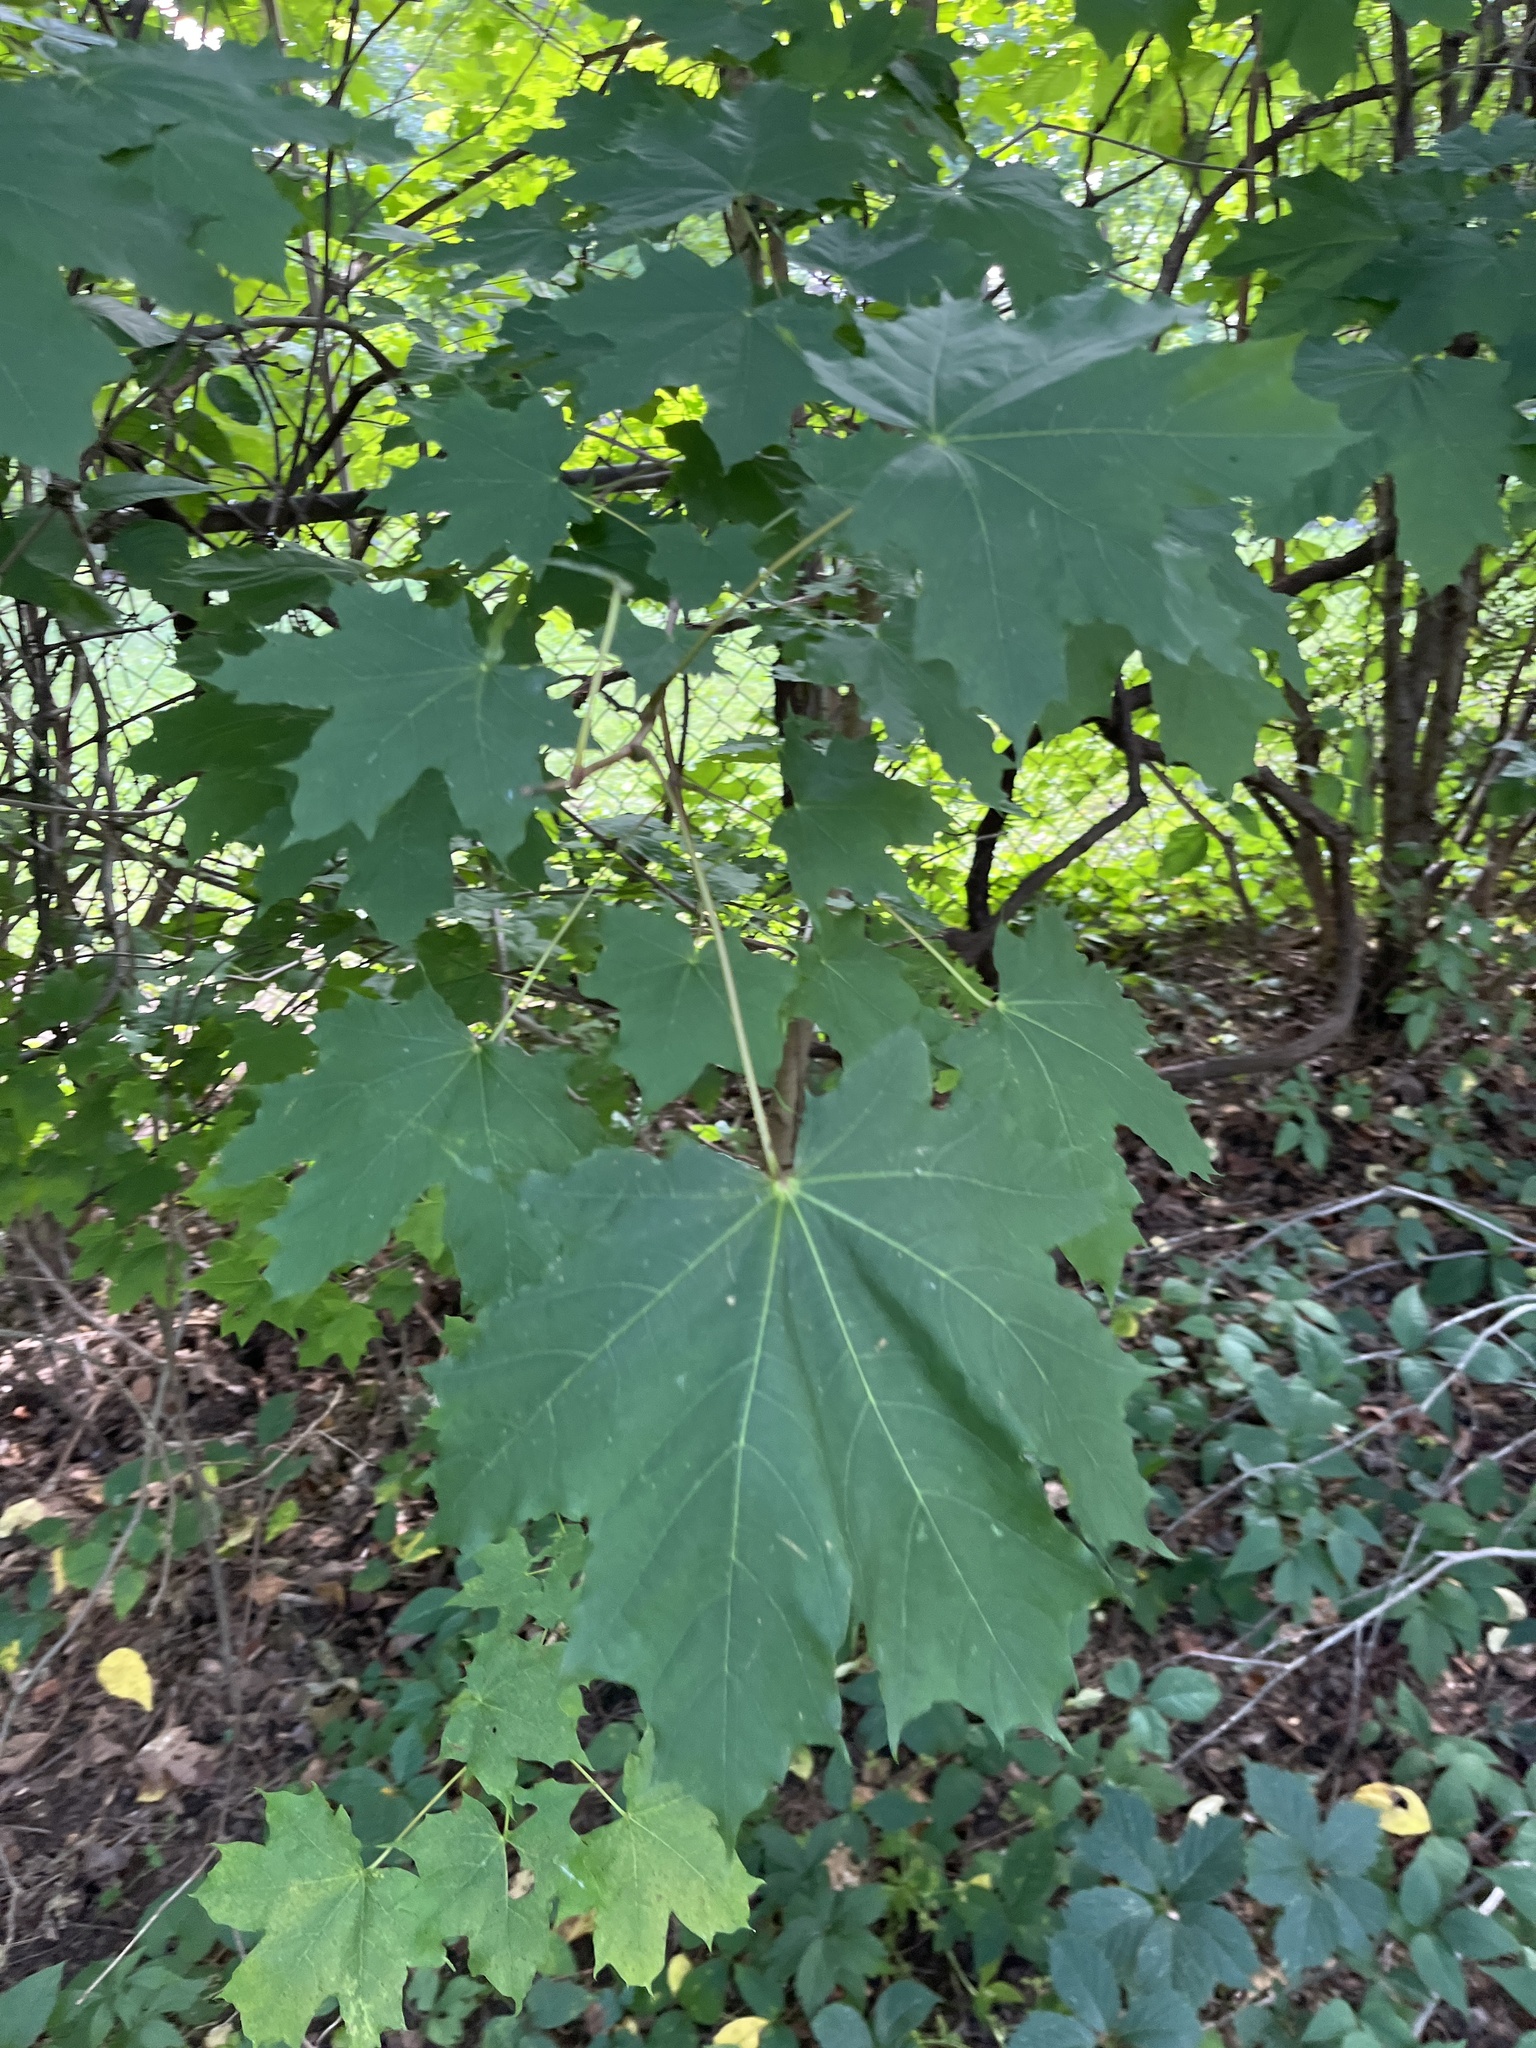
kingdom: Plantae
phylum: Tracheophyta
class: Magnoliopsida
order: Sapindales
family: Sapindaceae
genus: Acer
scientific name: Acer platanoides
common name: Norway maple
